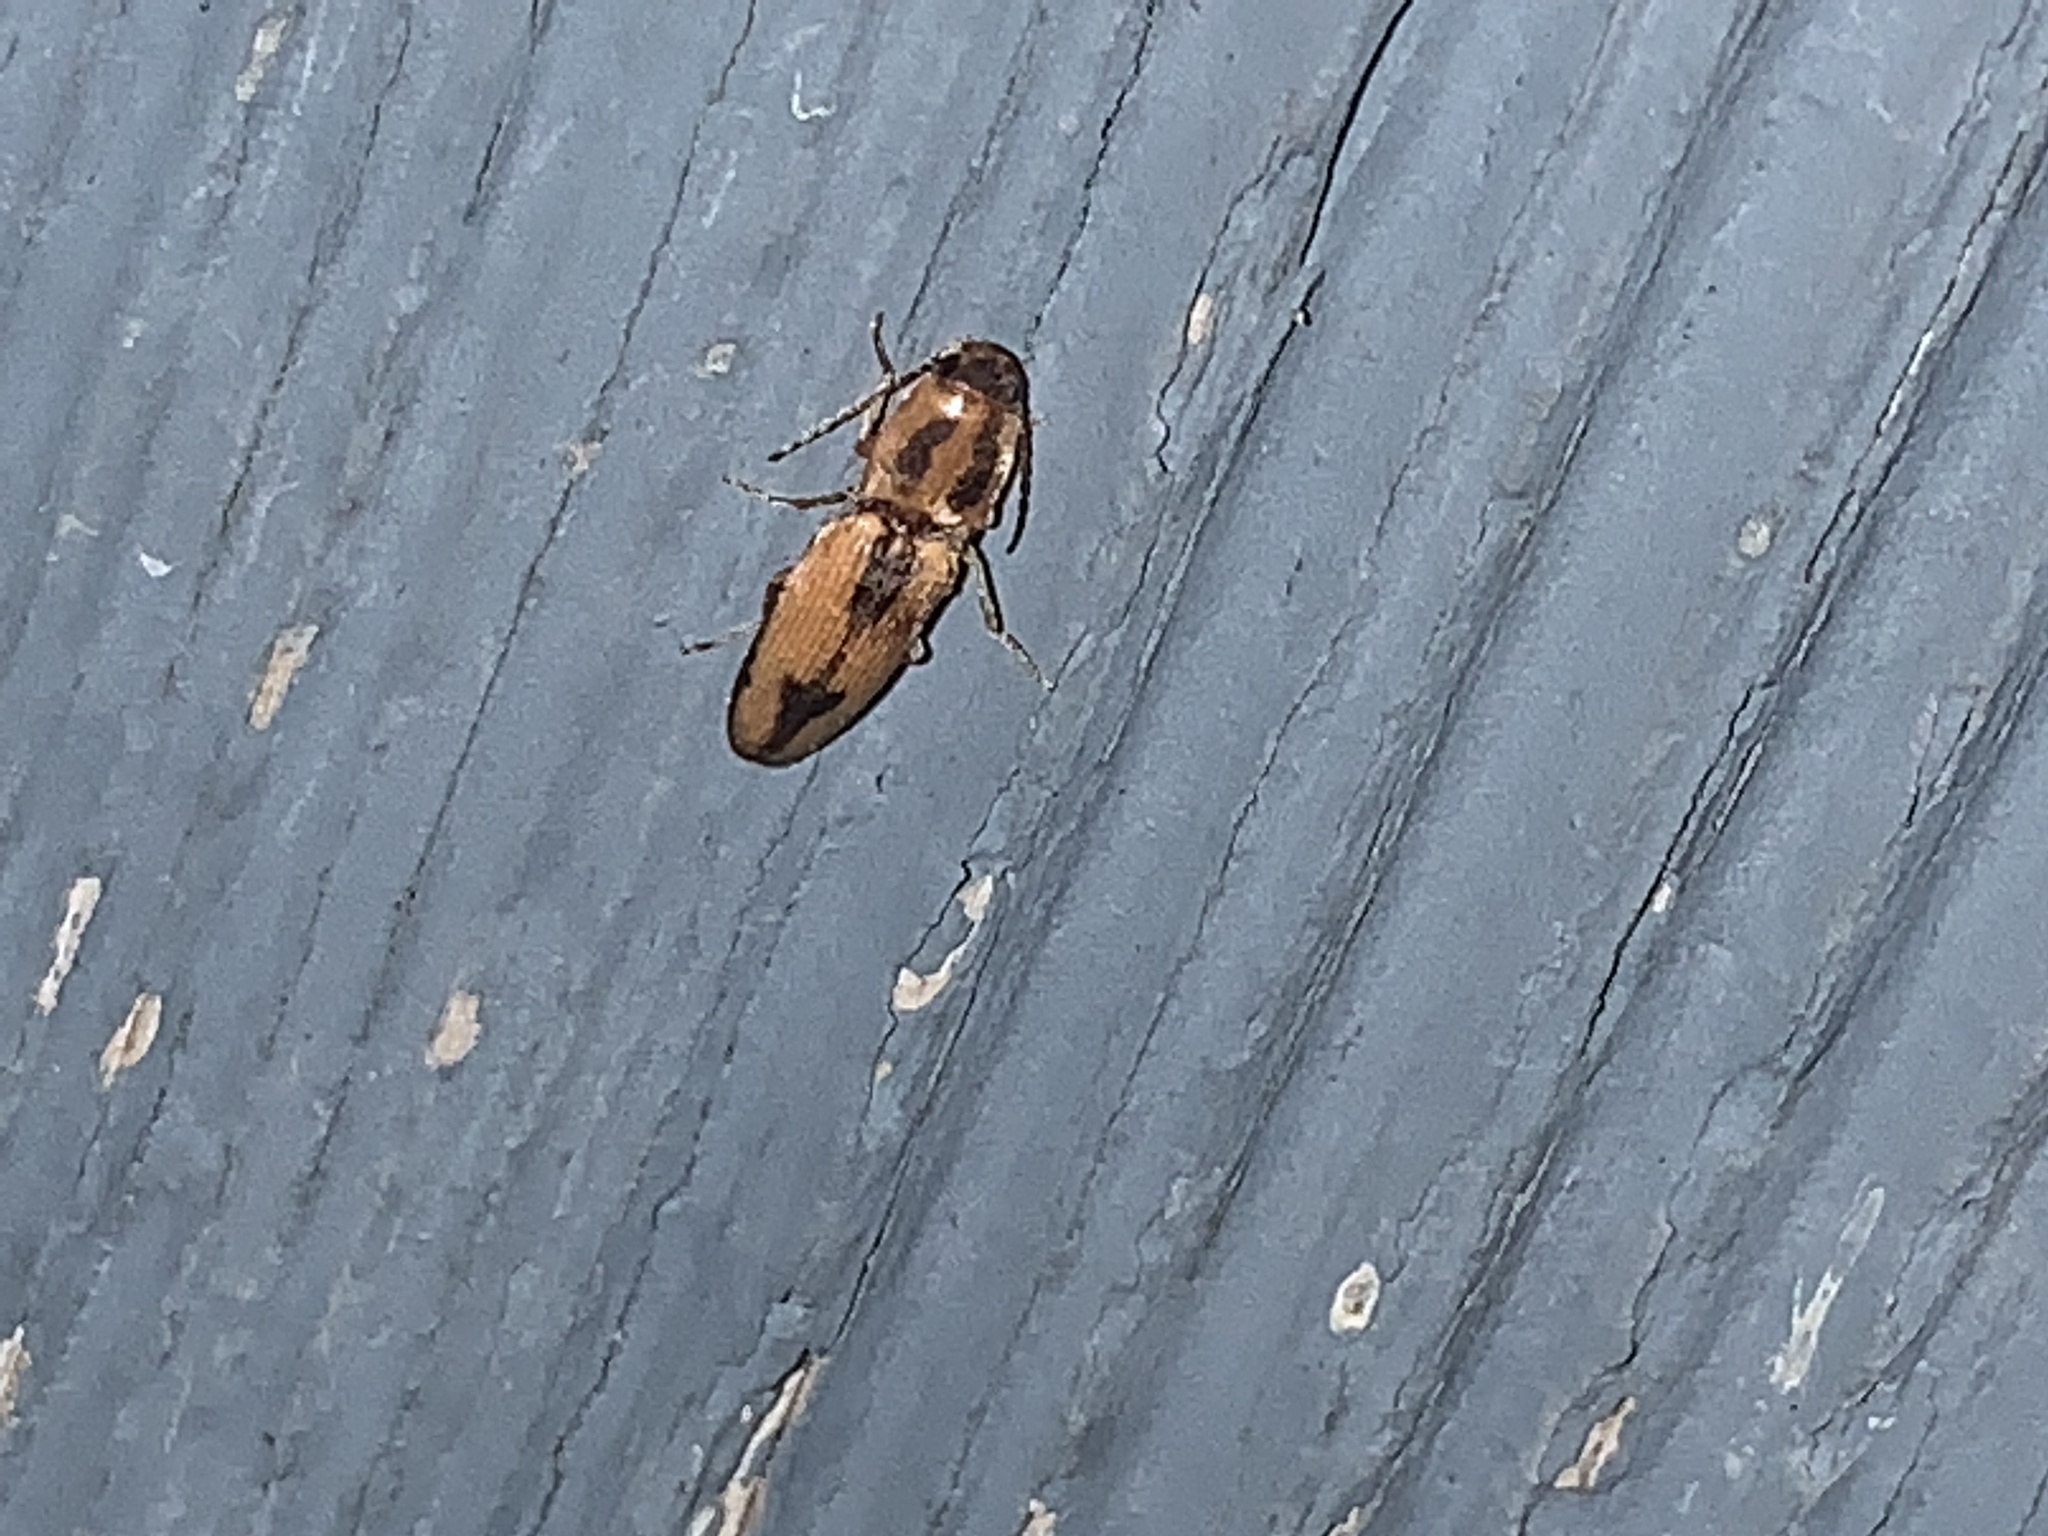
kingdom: Animalia
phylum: Arthropoda
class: Insecta
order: Coleoptera
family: Elateridae
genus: Monocrepidius
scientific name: Monocrepidius
